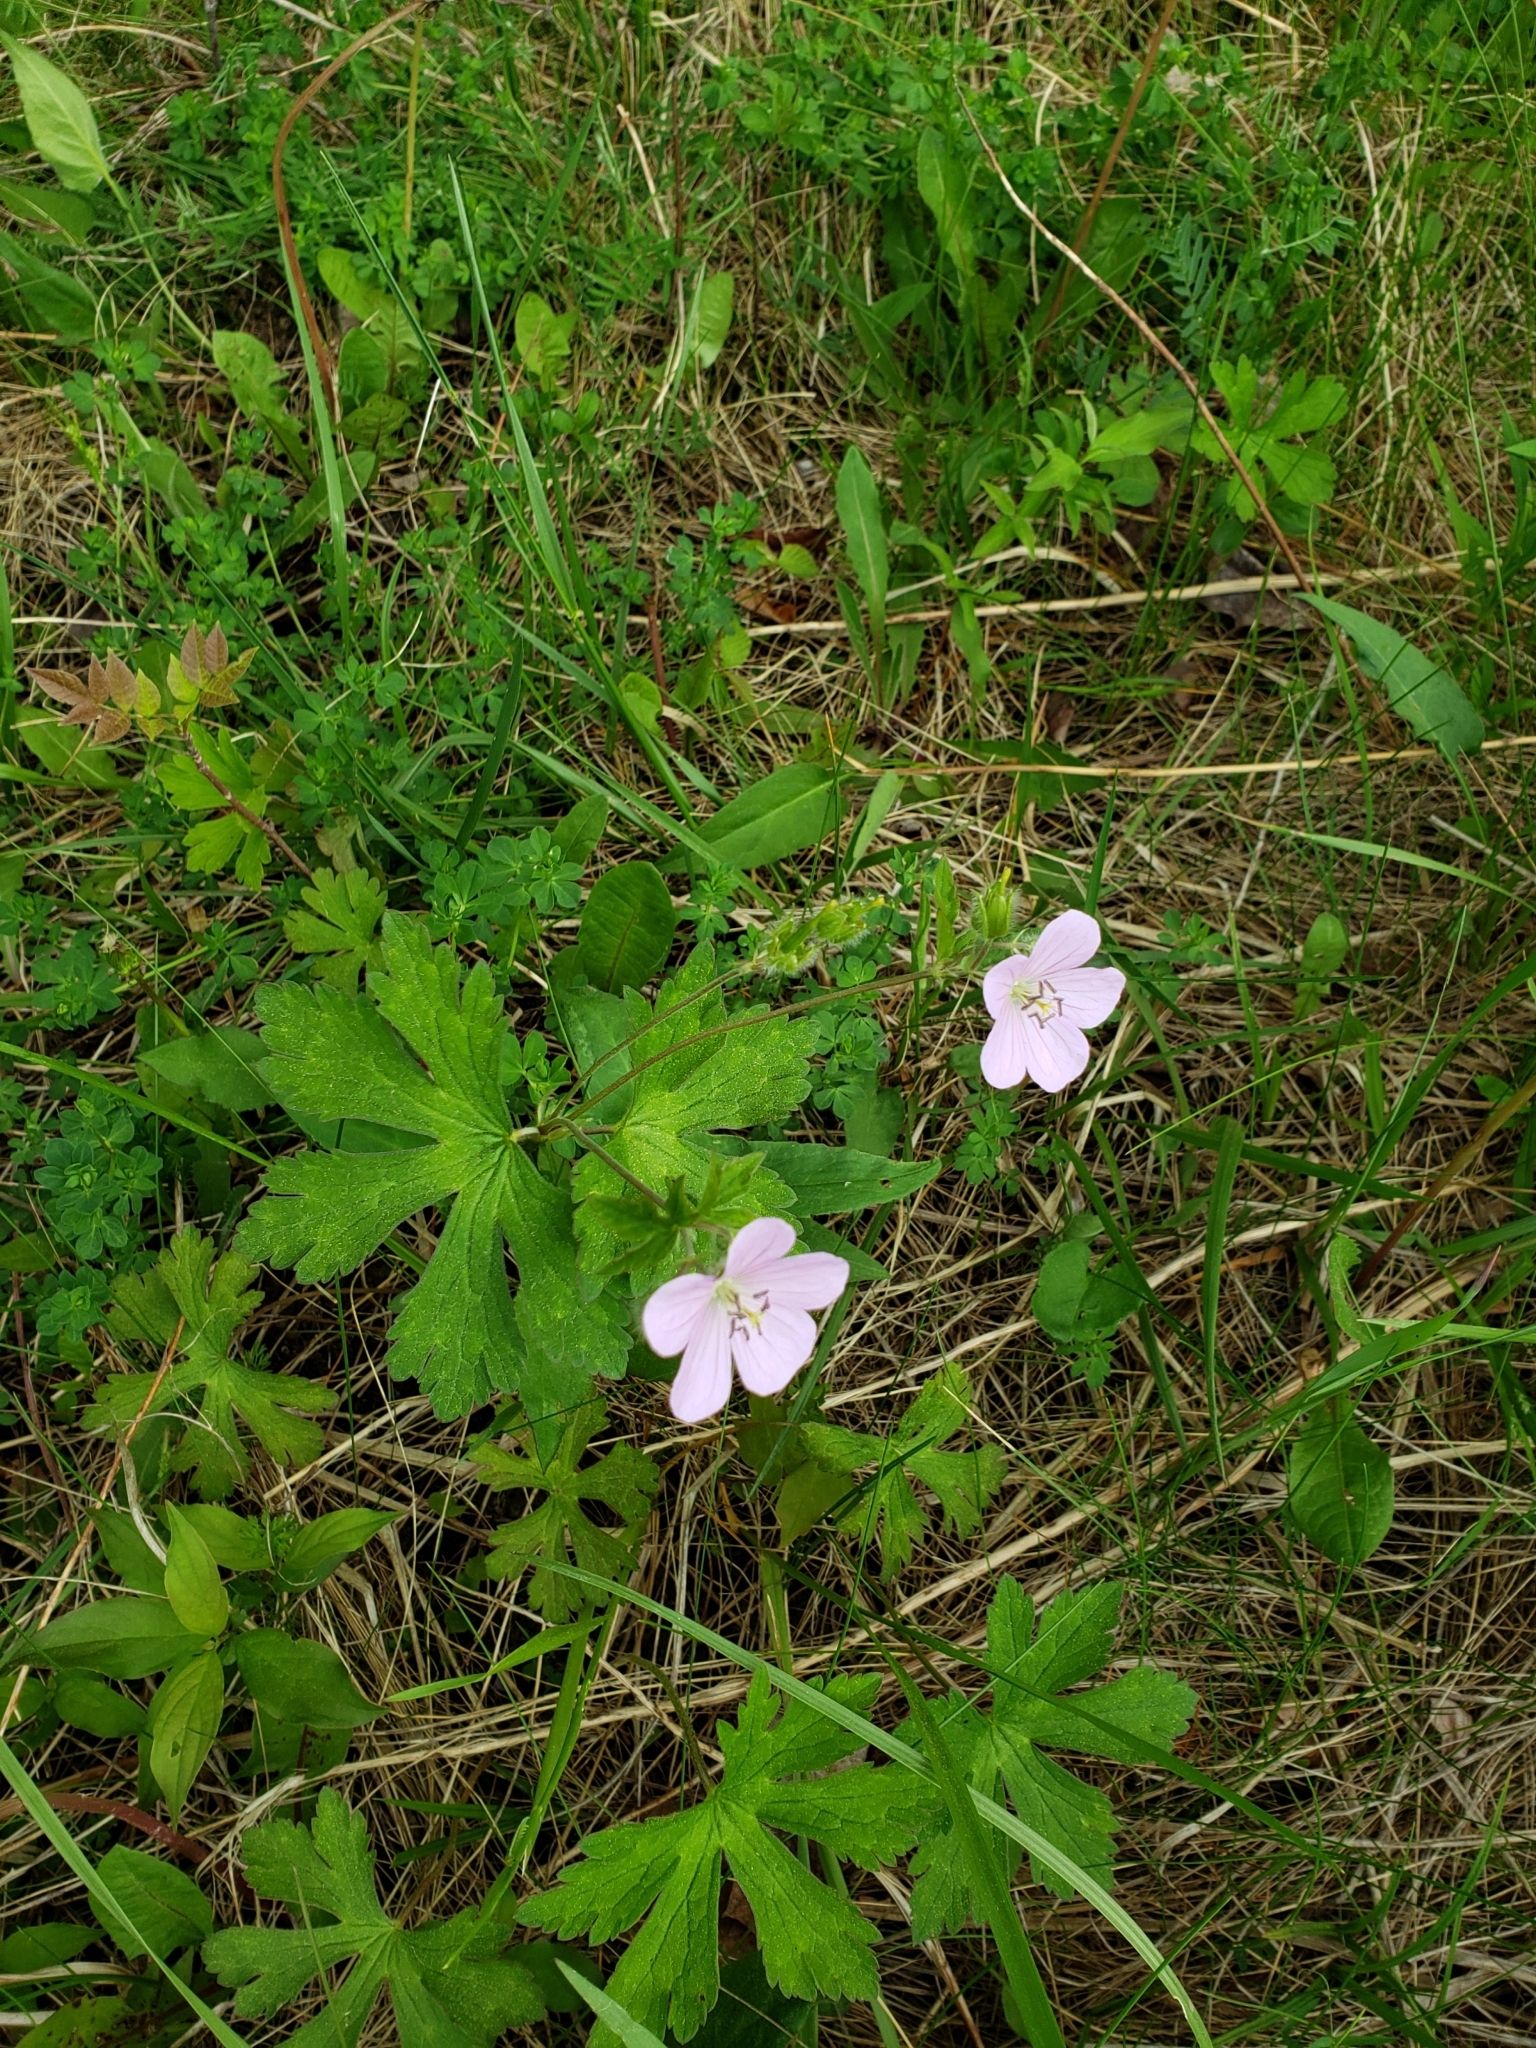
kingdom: Plantae
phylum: Tracheophyta
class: Magnoliopsida
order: Geraniales
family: Geraniaceae
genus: Geranium
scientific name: Geranium maculatum
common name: Spotted geranium
